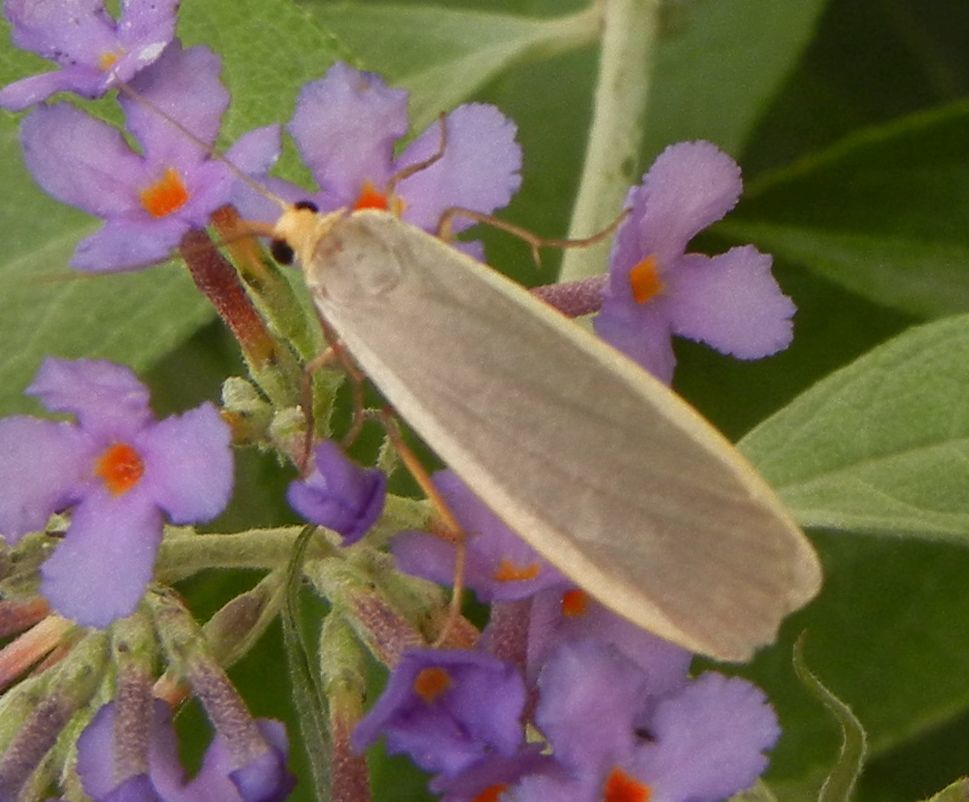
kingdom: Animalia
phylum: Arthropoda
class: Insecta
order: Lepidoptera
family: Erebidae
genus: Nyea
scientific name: Nyea lurideola
